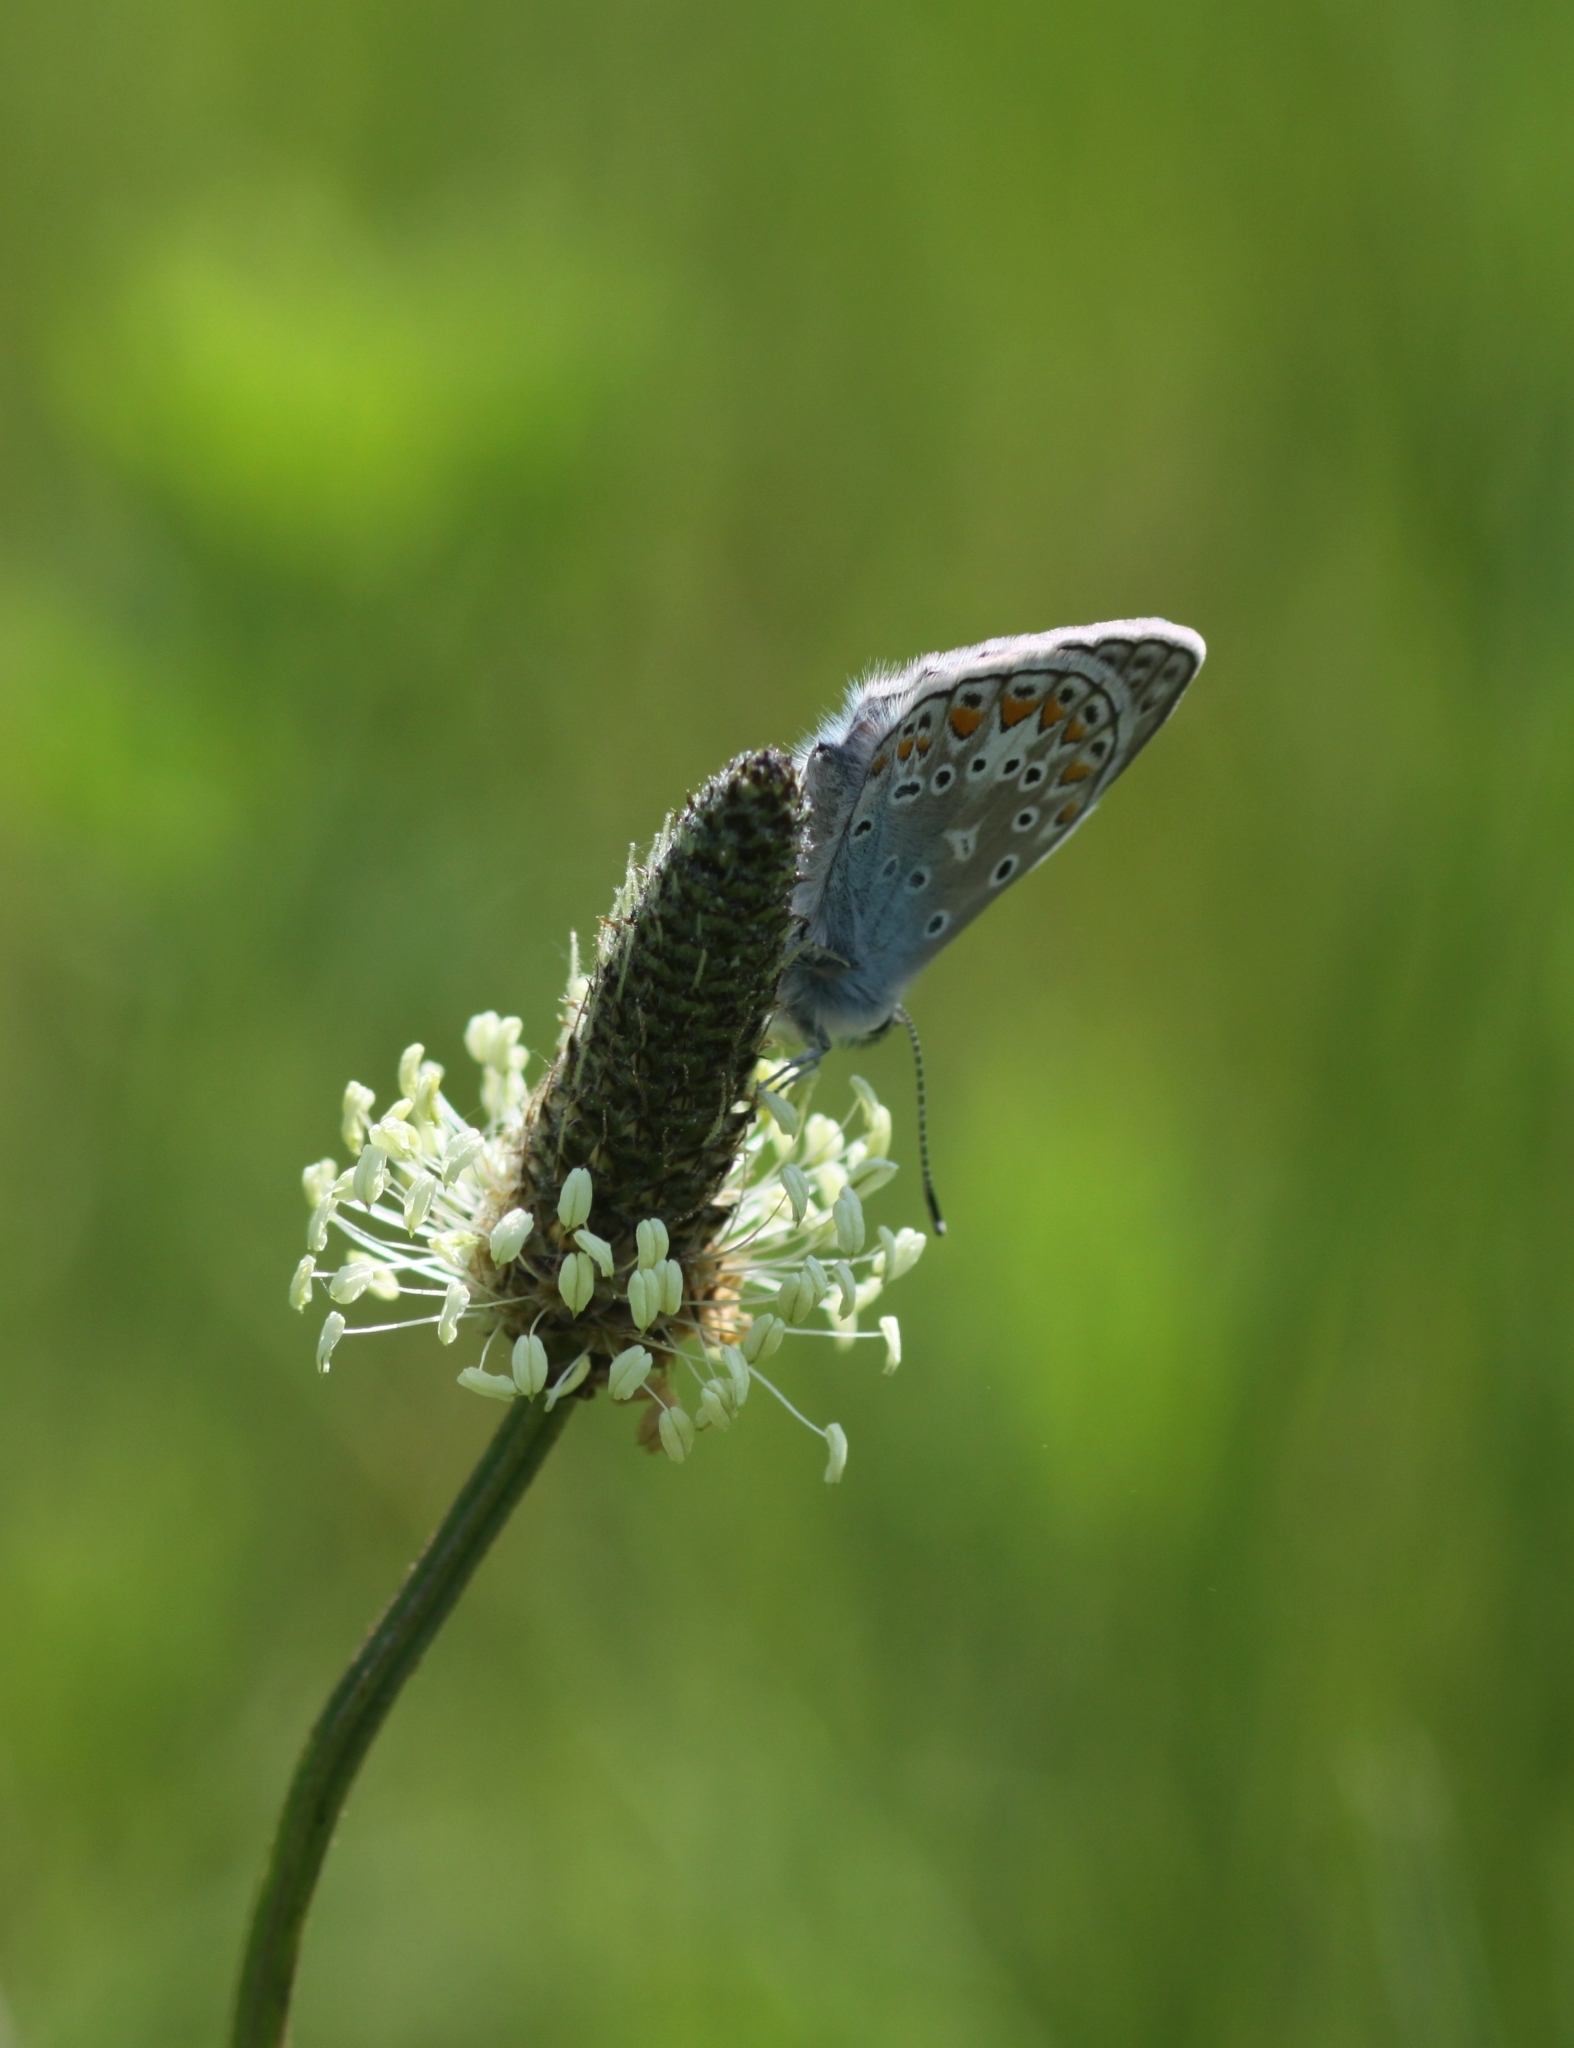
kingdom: Animalia
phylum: Arthropoda
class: Insecta
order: Lepidoptera
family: Lycaenidae
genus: Polyommatus
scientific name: Polyommatus icarus
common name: Common blue
